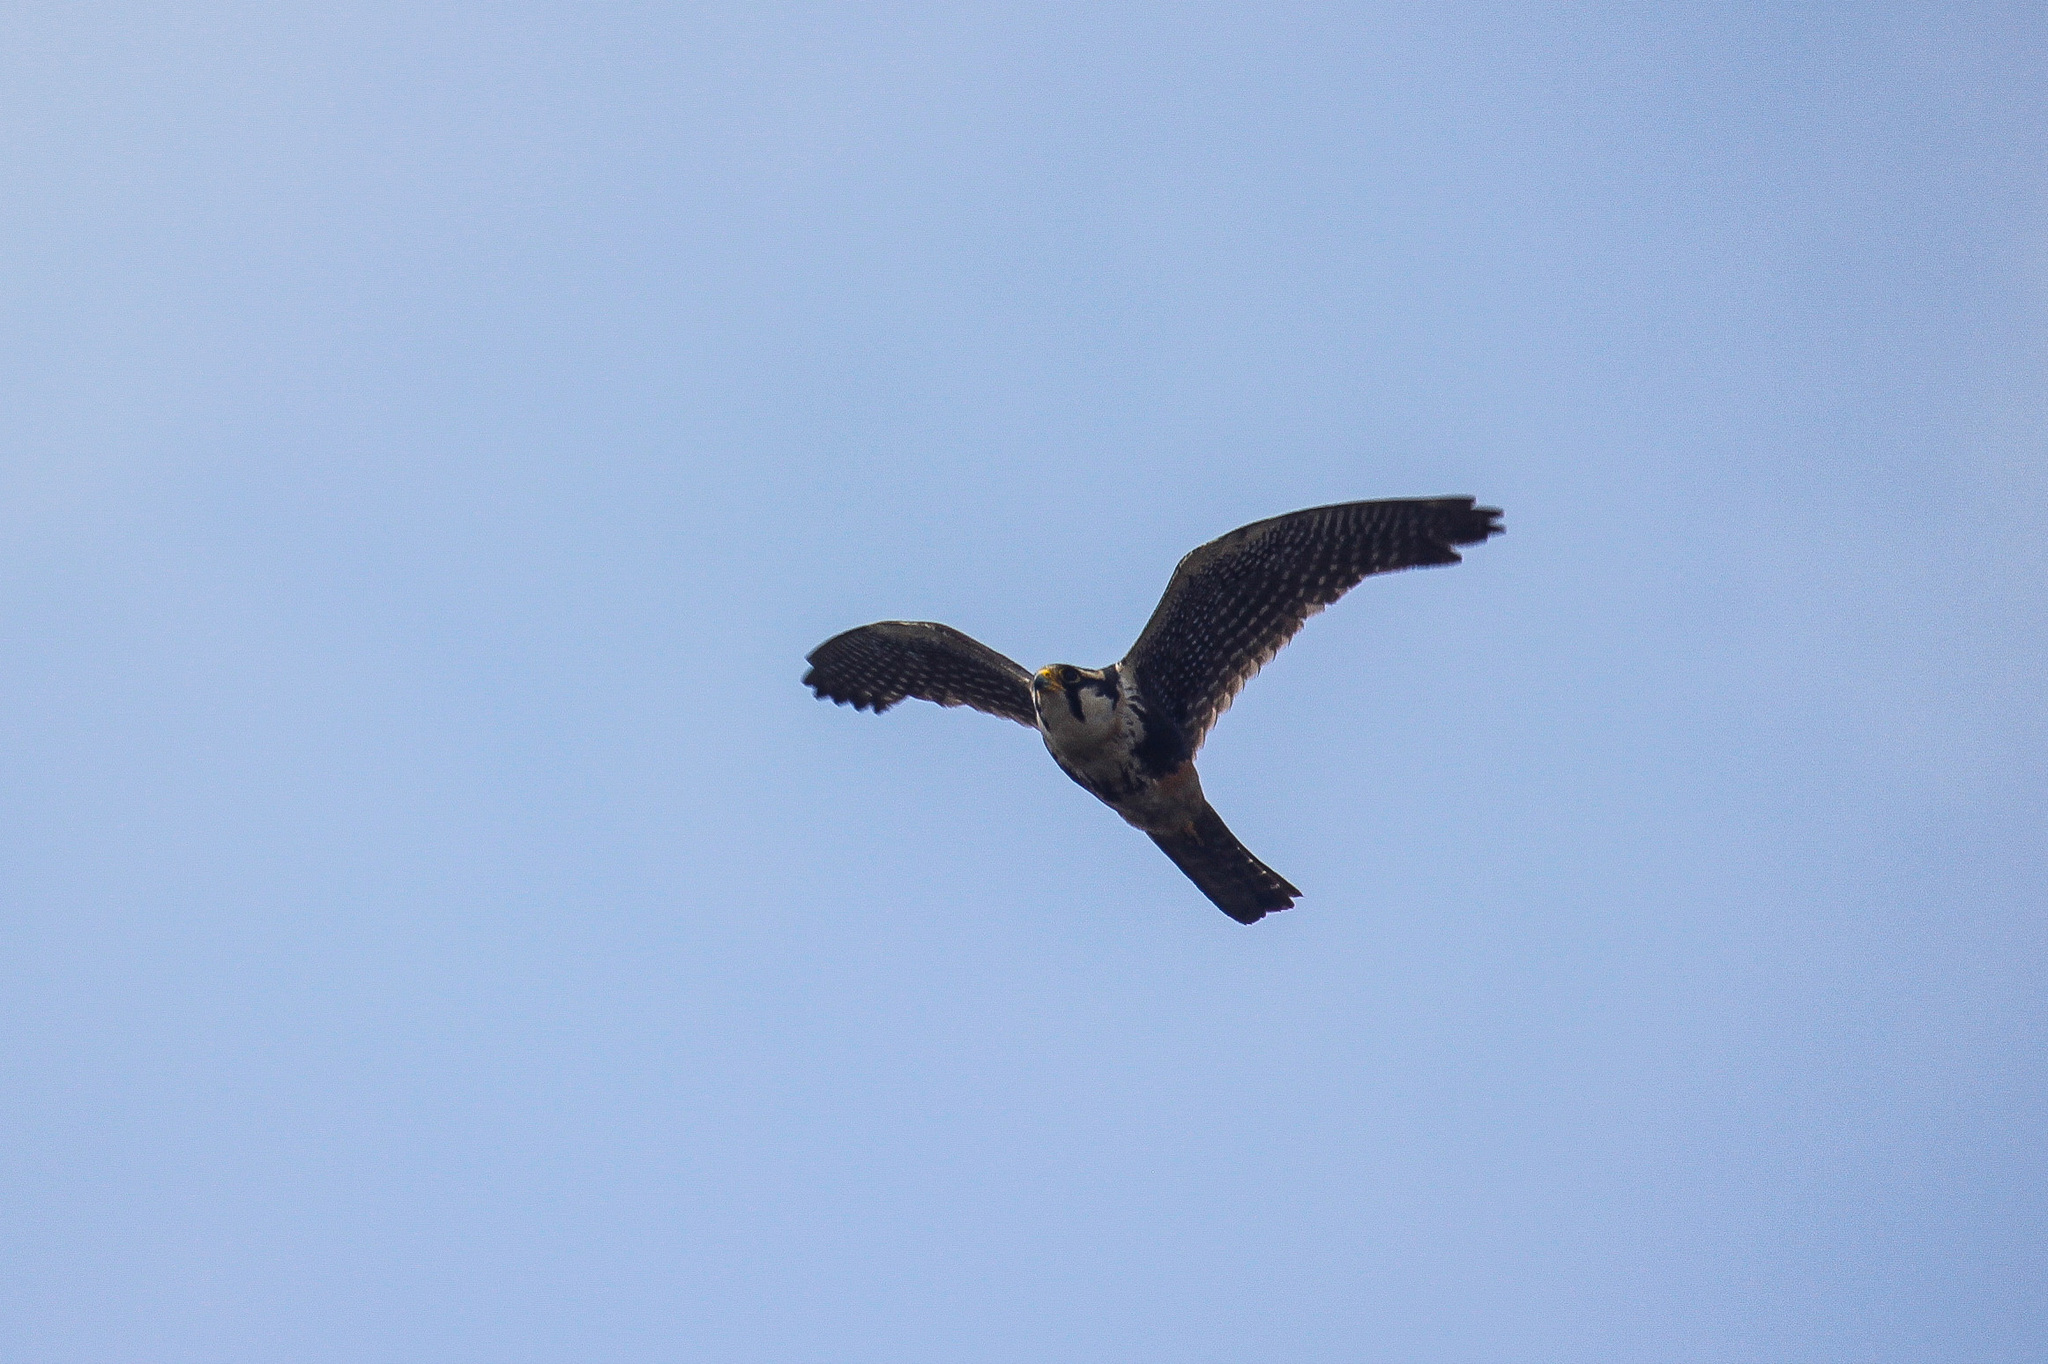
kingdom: Animalia
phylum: Chordata
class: Aves
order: Falconiformes
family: Falconidae
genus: Falco
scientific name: Falco femoralis
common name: Aplomado falcon
